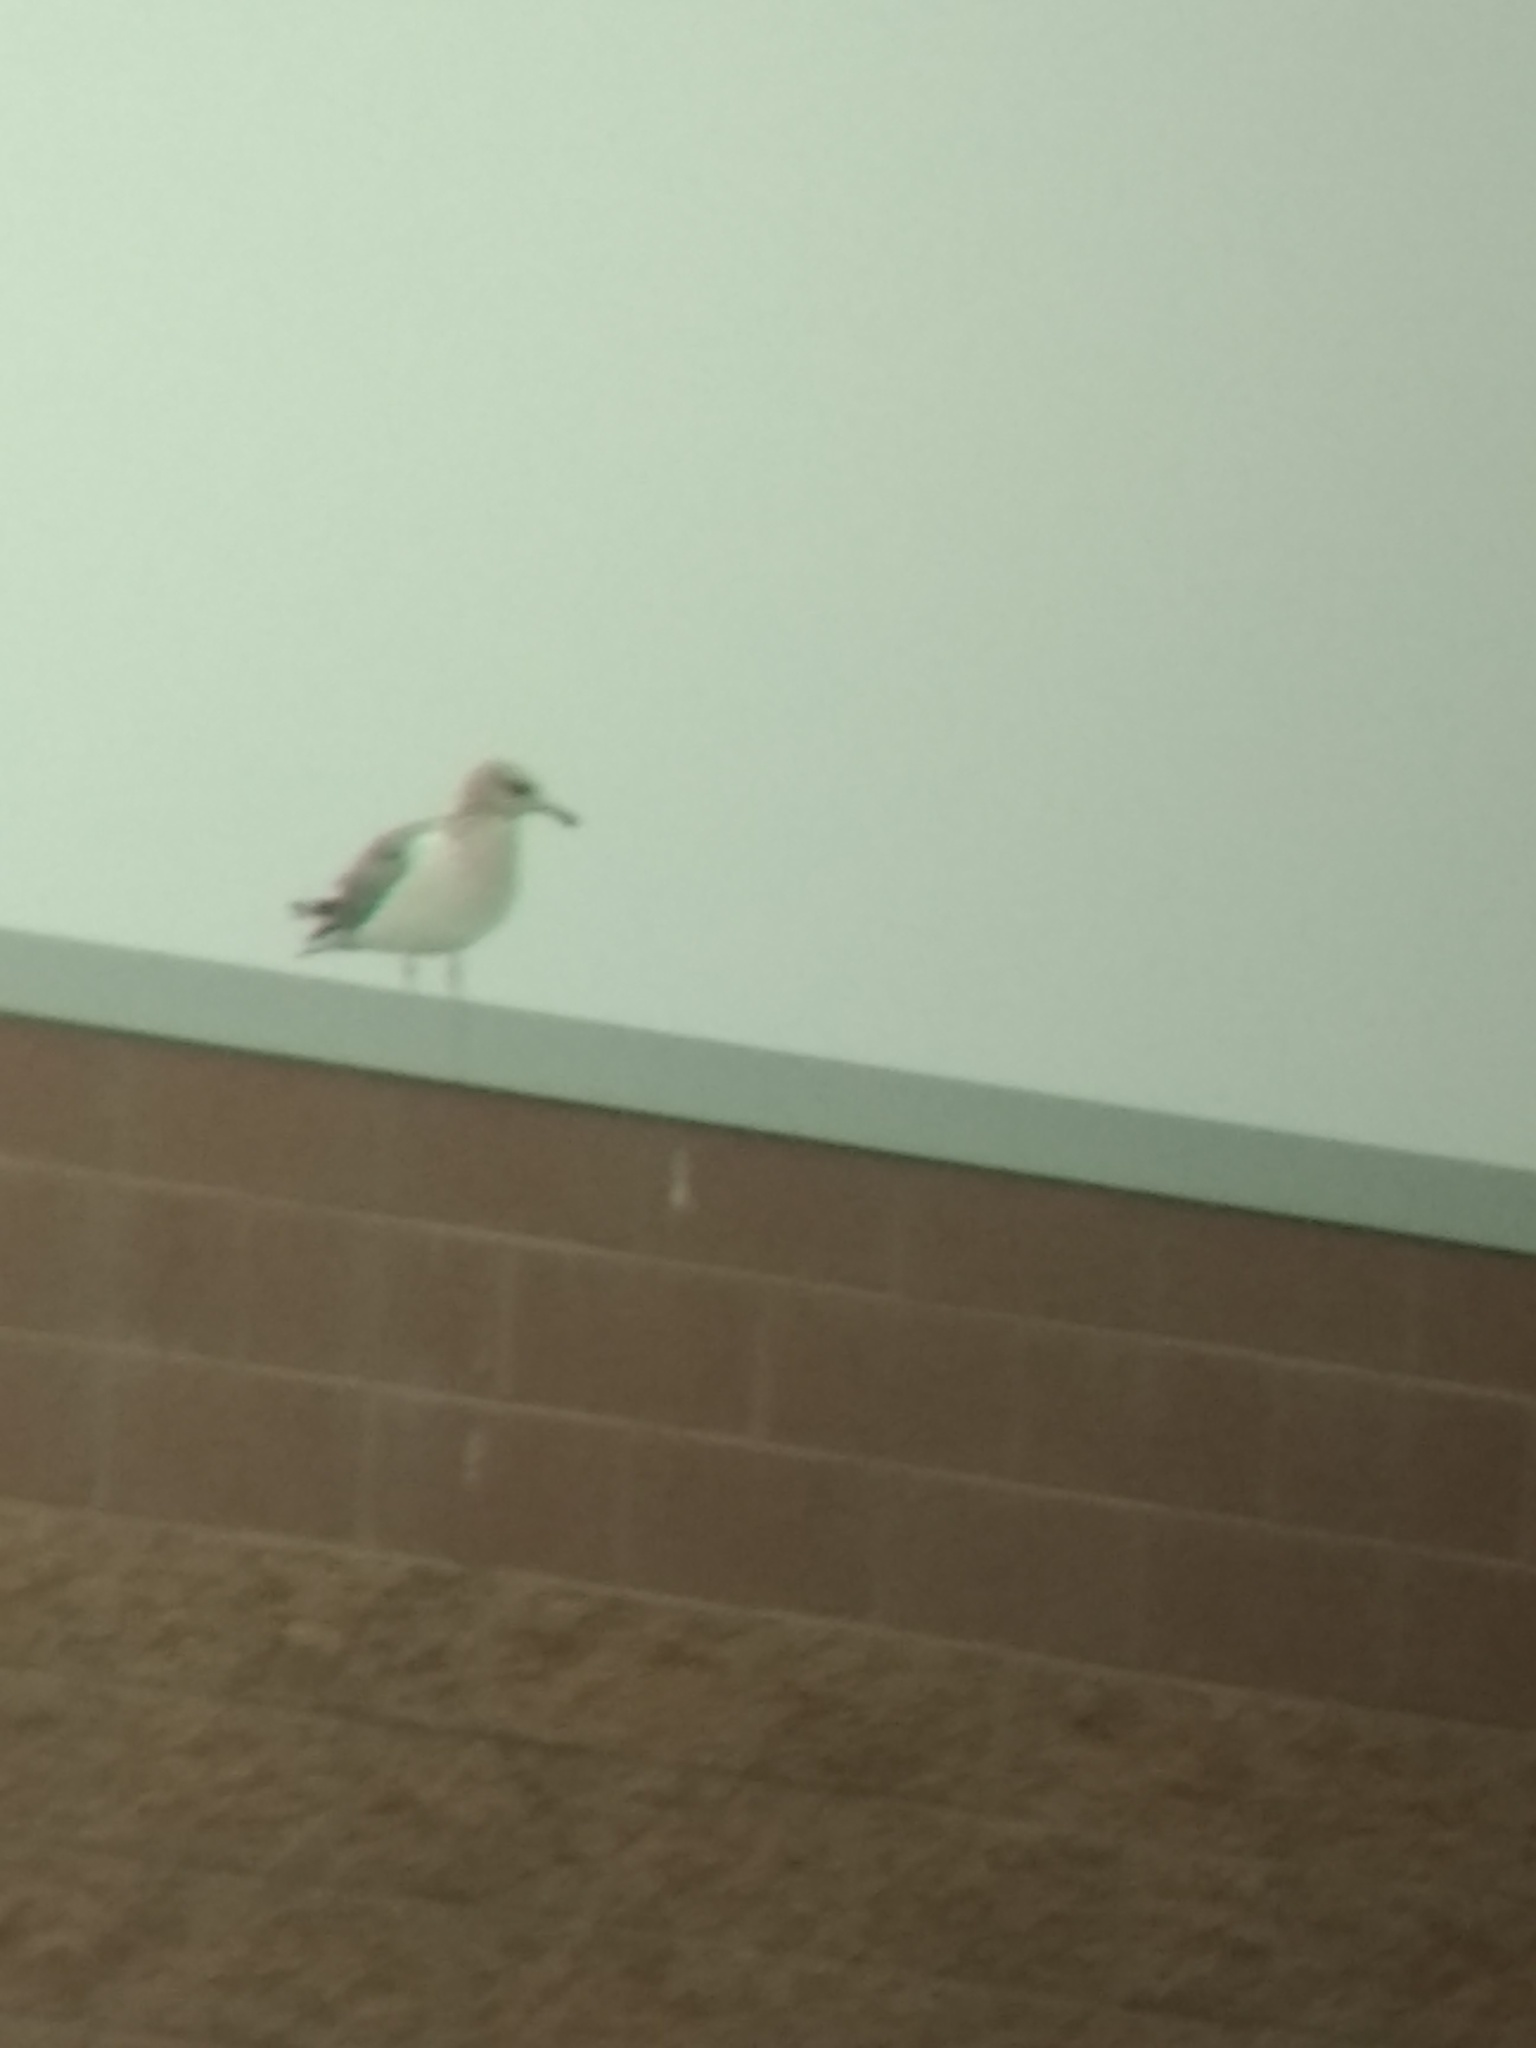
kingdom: Animalia
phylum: Chordata
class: Aves
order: Charadriiformes
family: Laridae
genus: Larus
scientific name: Larus californicus
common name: California gull
